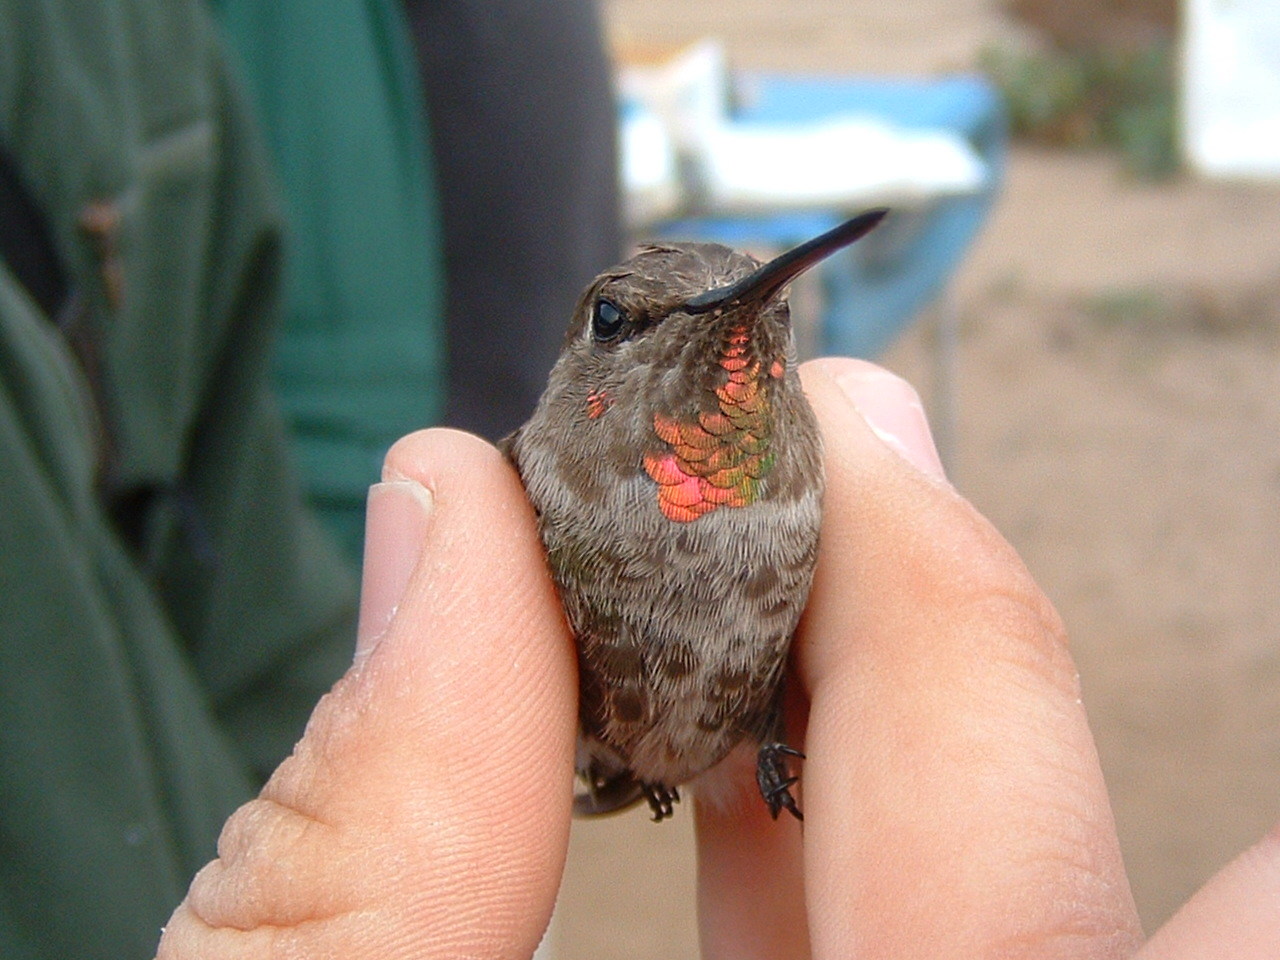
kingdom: Animalia
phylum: Chordata
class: Aves
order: Apodiformes
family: Trochilidae
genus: Calypte
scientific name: Calypte anna
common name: Anna's hummingbird
